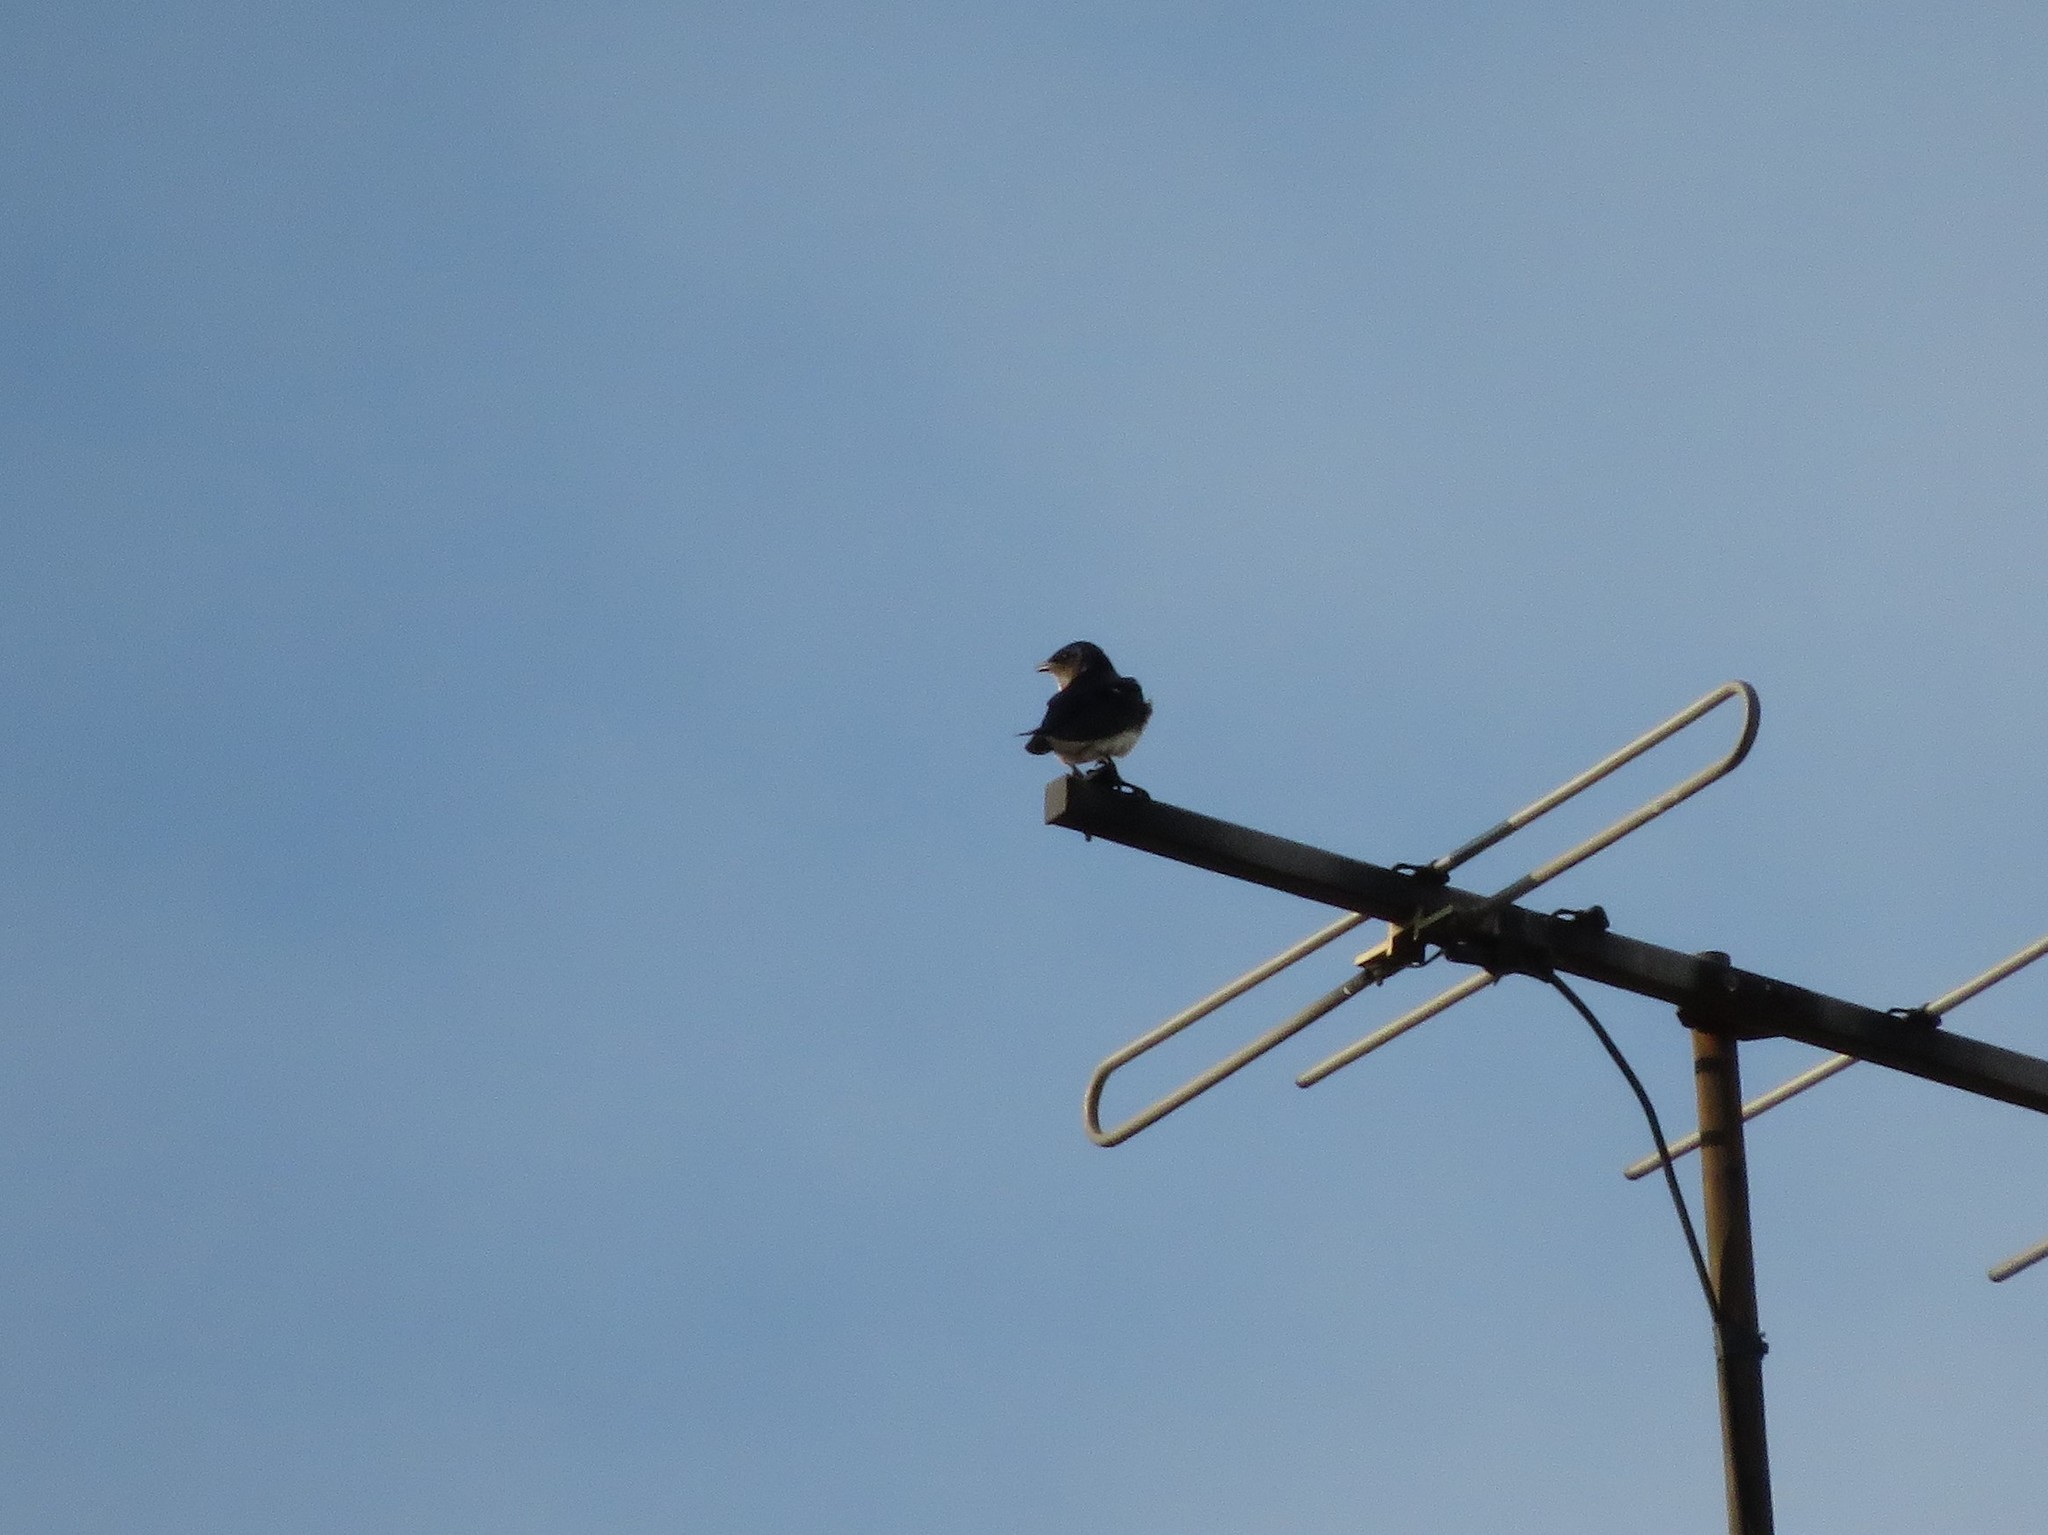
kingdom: Animalia
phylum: Chordata
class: Aves
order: Passeriformes
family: Hirundinidae
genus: Progne
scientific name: Progne chalybea
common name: Grey-breasted martin
